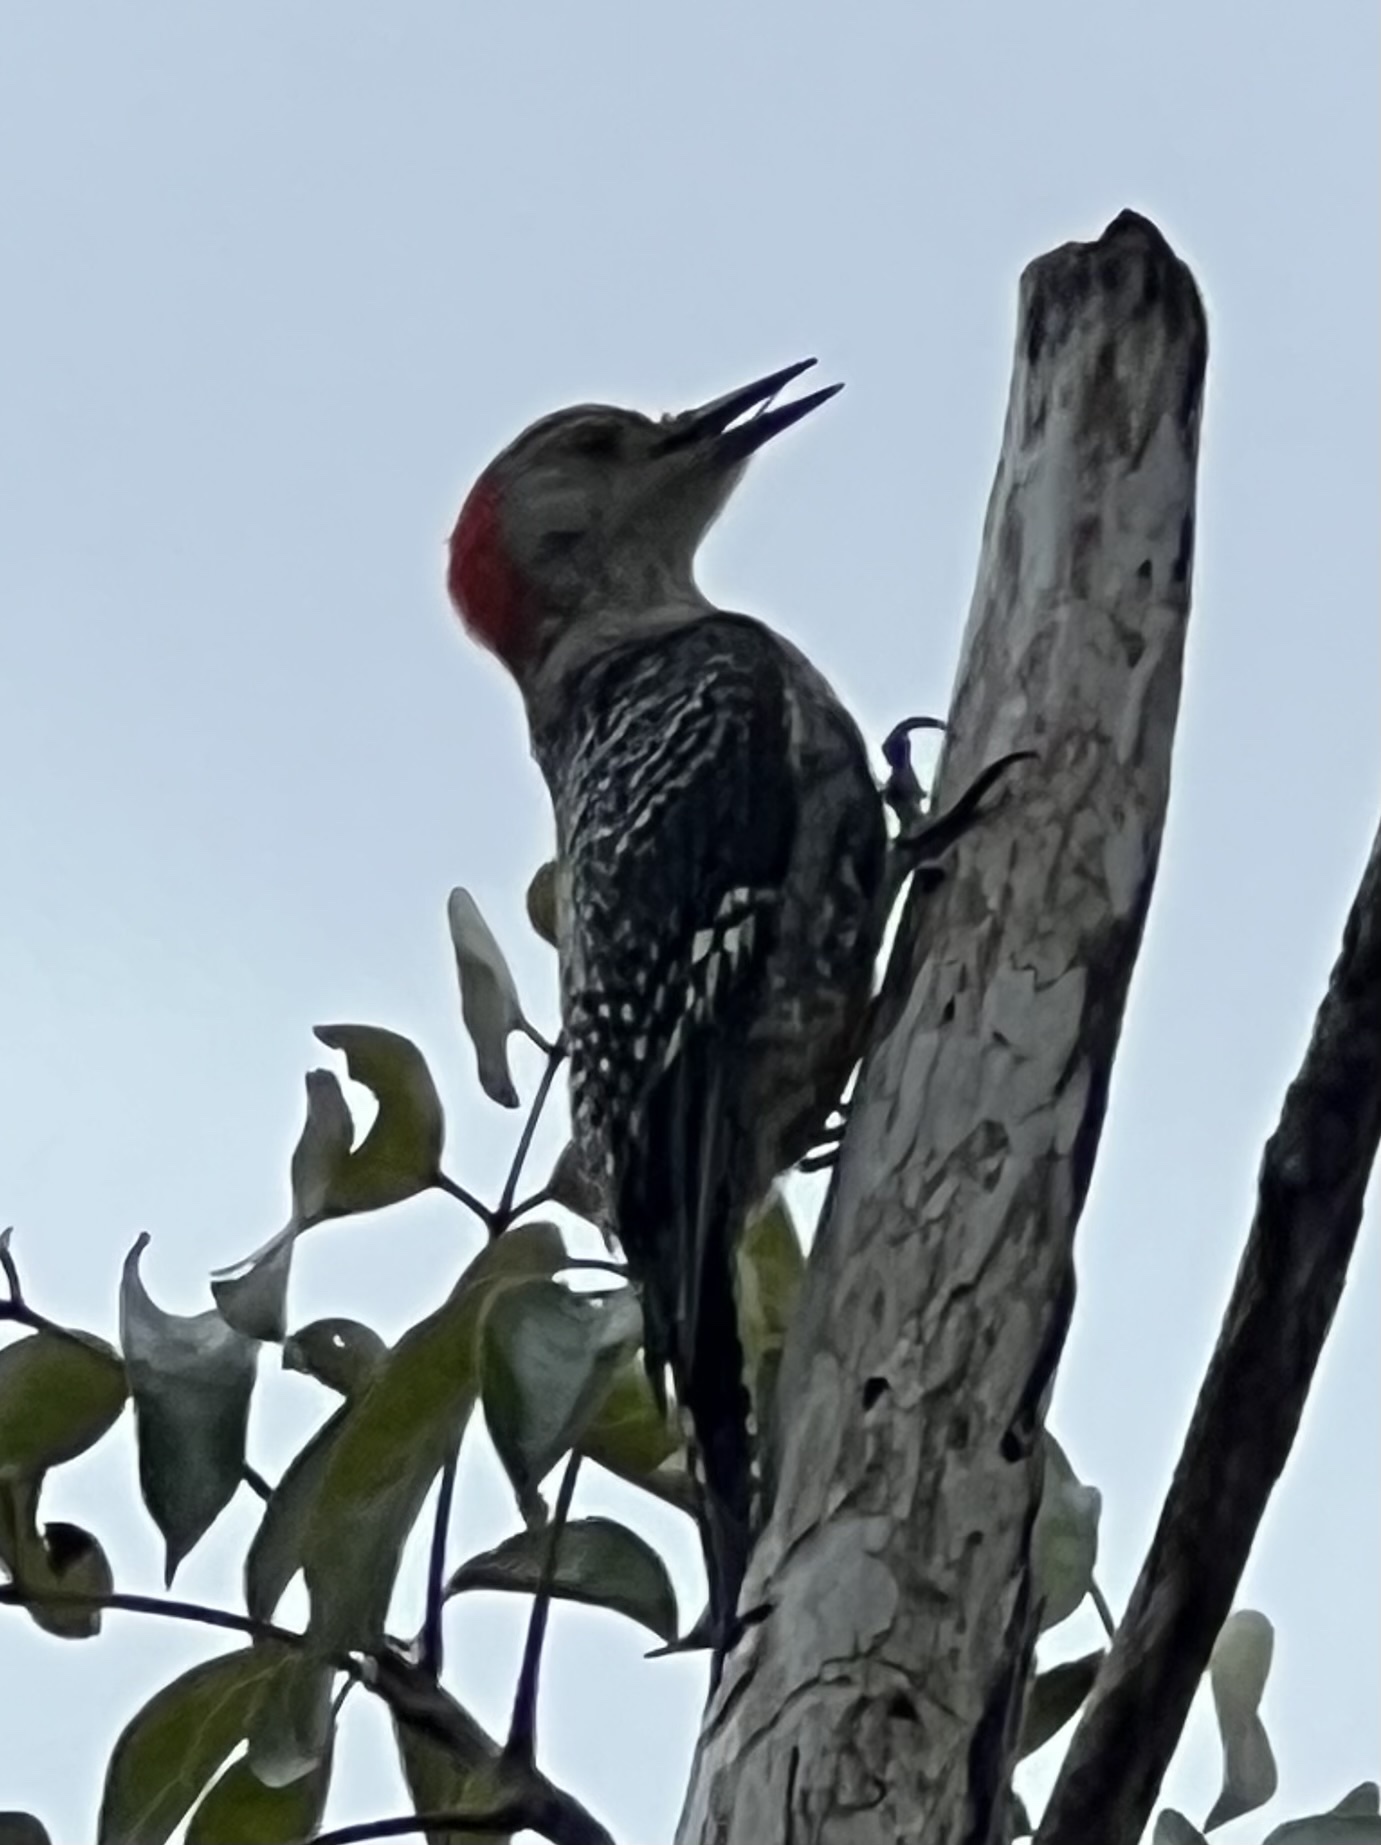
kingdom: Animalia
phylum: Chordata
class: Aves
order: Piciformes
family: Picidae
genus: Melanerpes
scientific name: Melanerpes carolinus
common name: Red-bellied woodpecker
